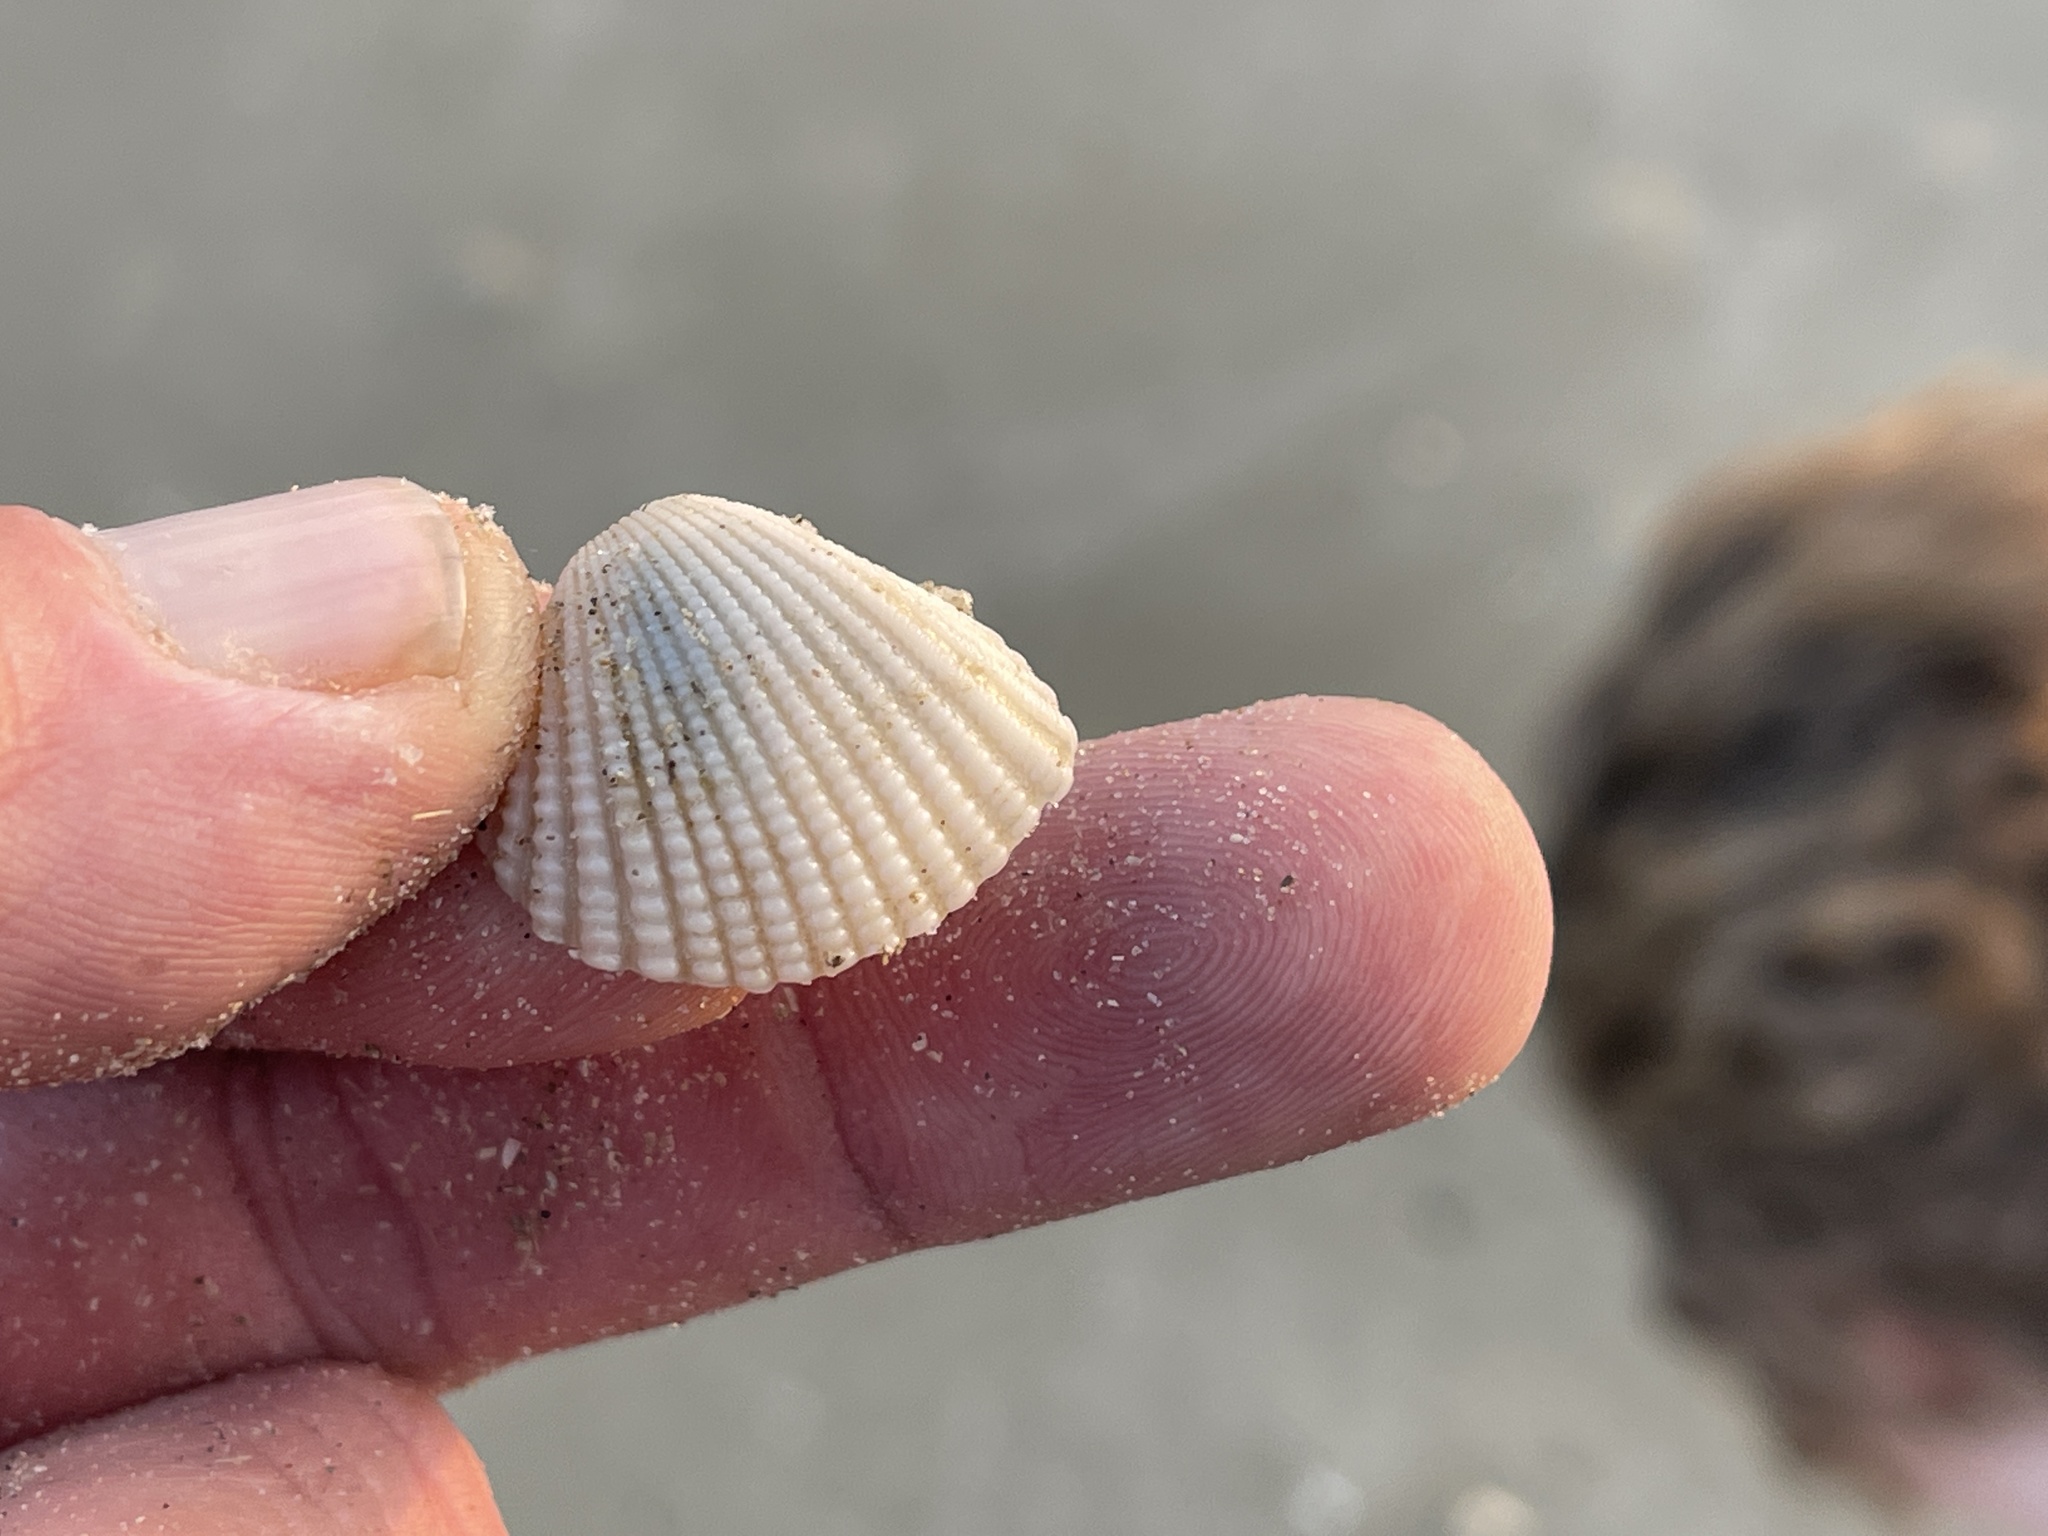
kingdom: Animalia
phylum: Mollusca
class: Bivalvia
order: Arcida
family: Arcidae
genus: Anadara
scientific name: Anadara brasiliana
